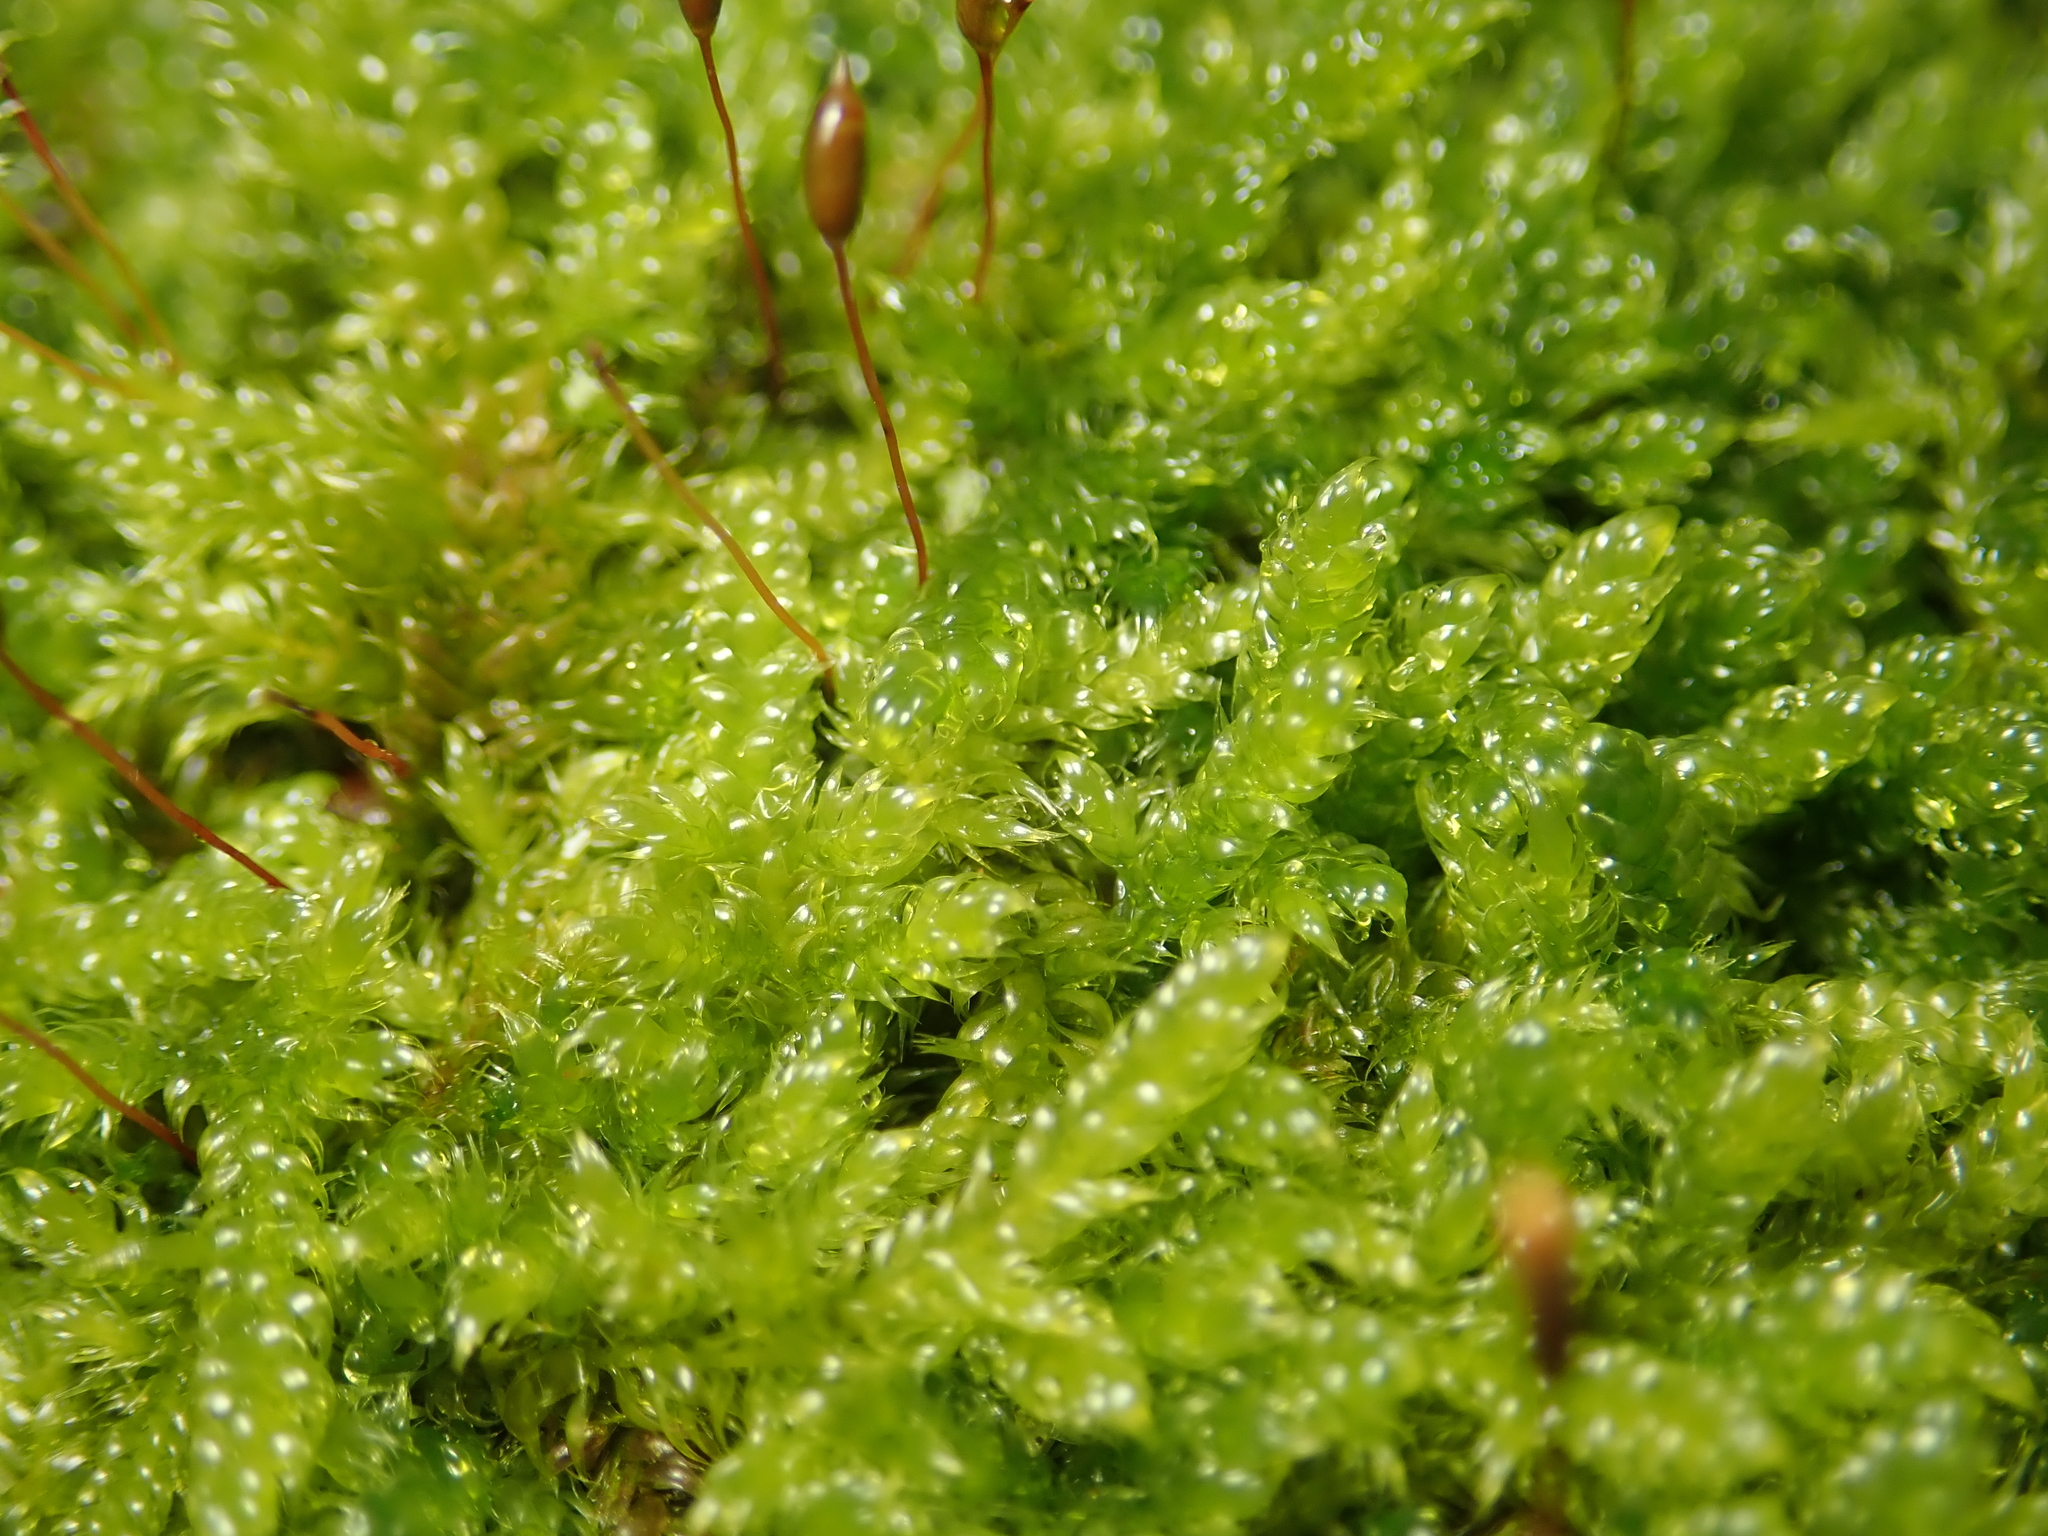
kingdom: Plantae
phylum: Bryophyta
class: Bryopsida
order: Hypnales
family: Hypnaceae
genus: Hypnum
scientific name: Hypnum cupressiforme
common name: Cypress-leaved plait-moss
